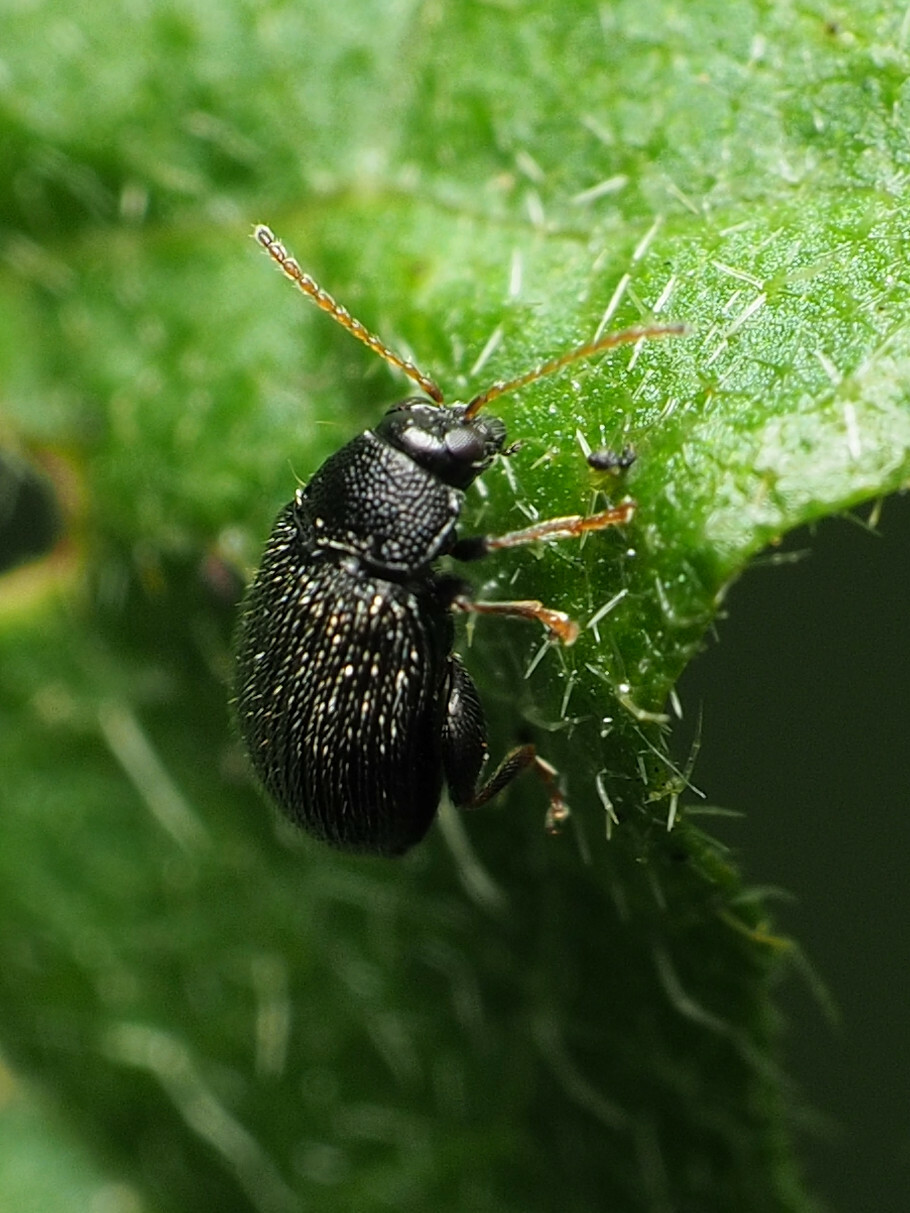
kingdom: Animalia
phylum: Arthropoda
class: Insecta
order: Coleoptera
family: Chrysomelidae
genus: Epitrix
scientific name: Epitrix fuscula
